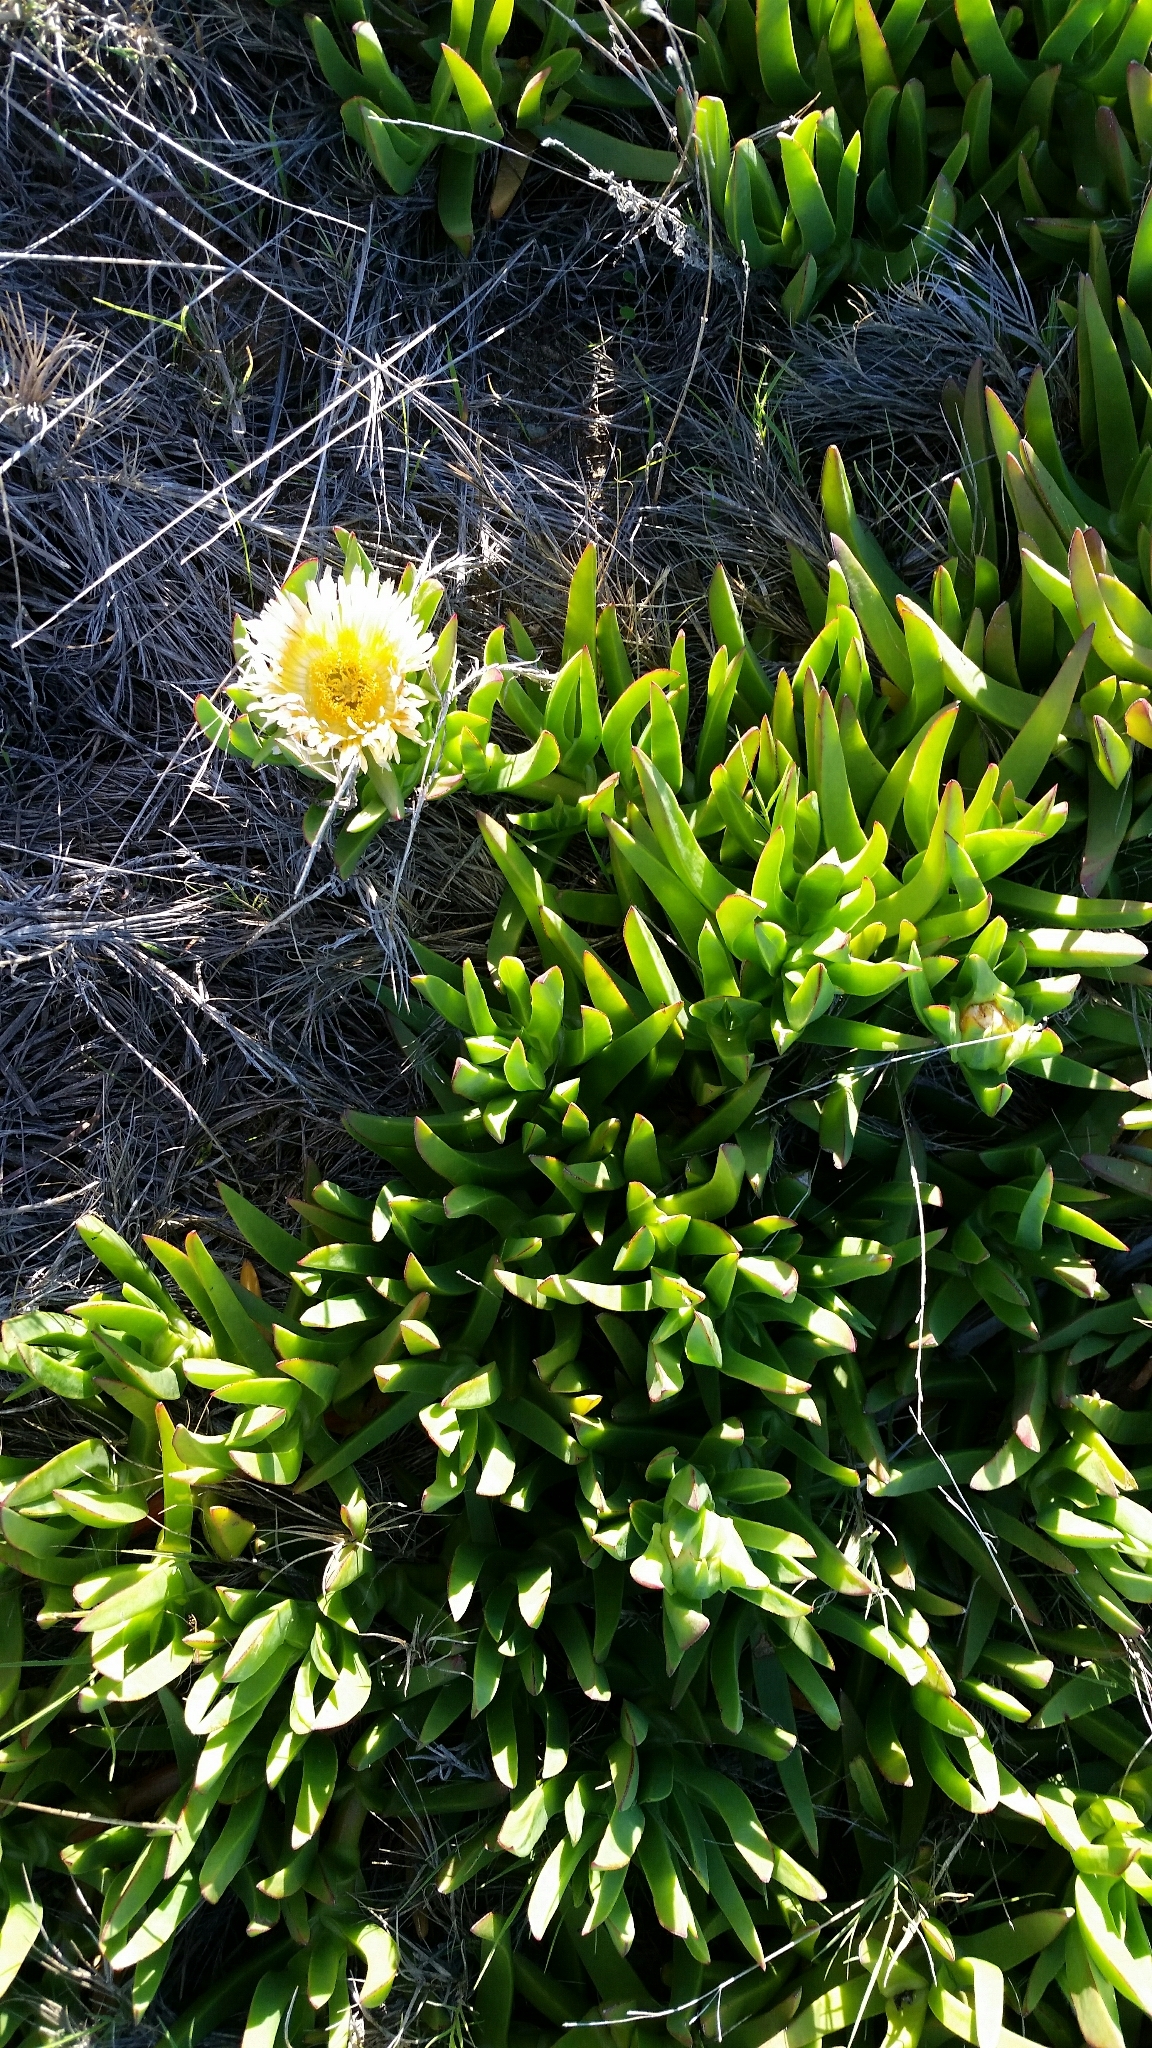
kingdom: Plantae
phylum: Tracheophyta
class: Magnoliopsida
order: Caryophyllales
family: Aizoaceae
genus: Carpobrotus
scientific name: Carpobrotus edulis
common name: Hottentot-fig
